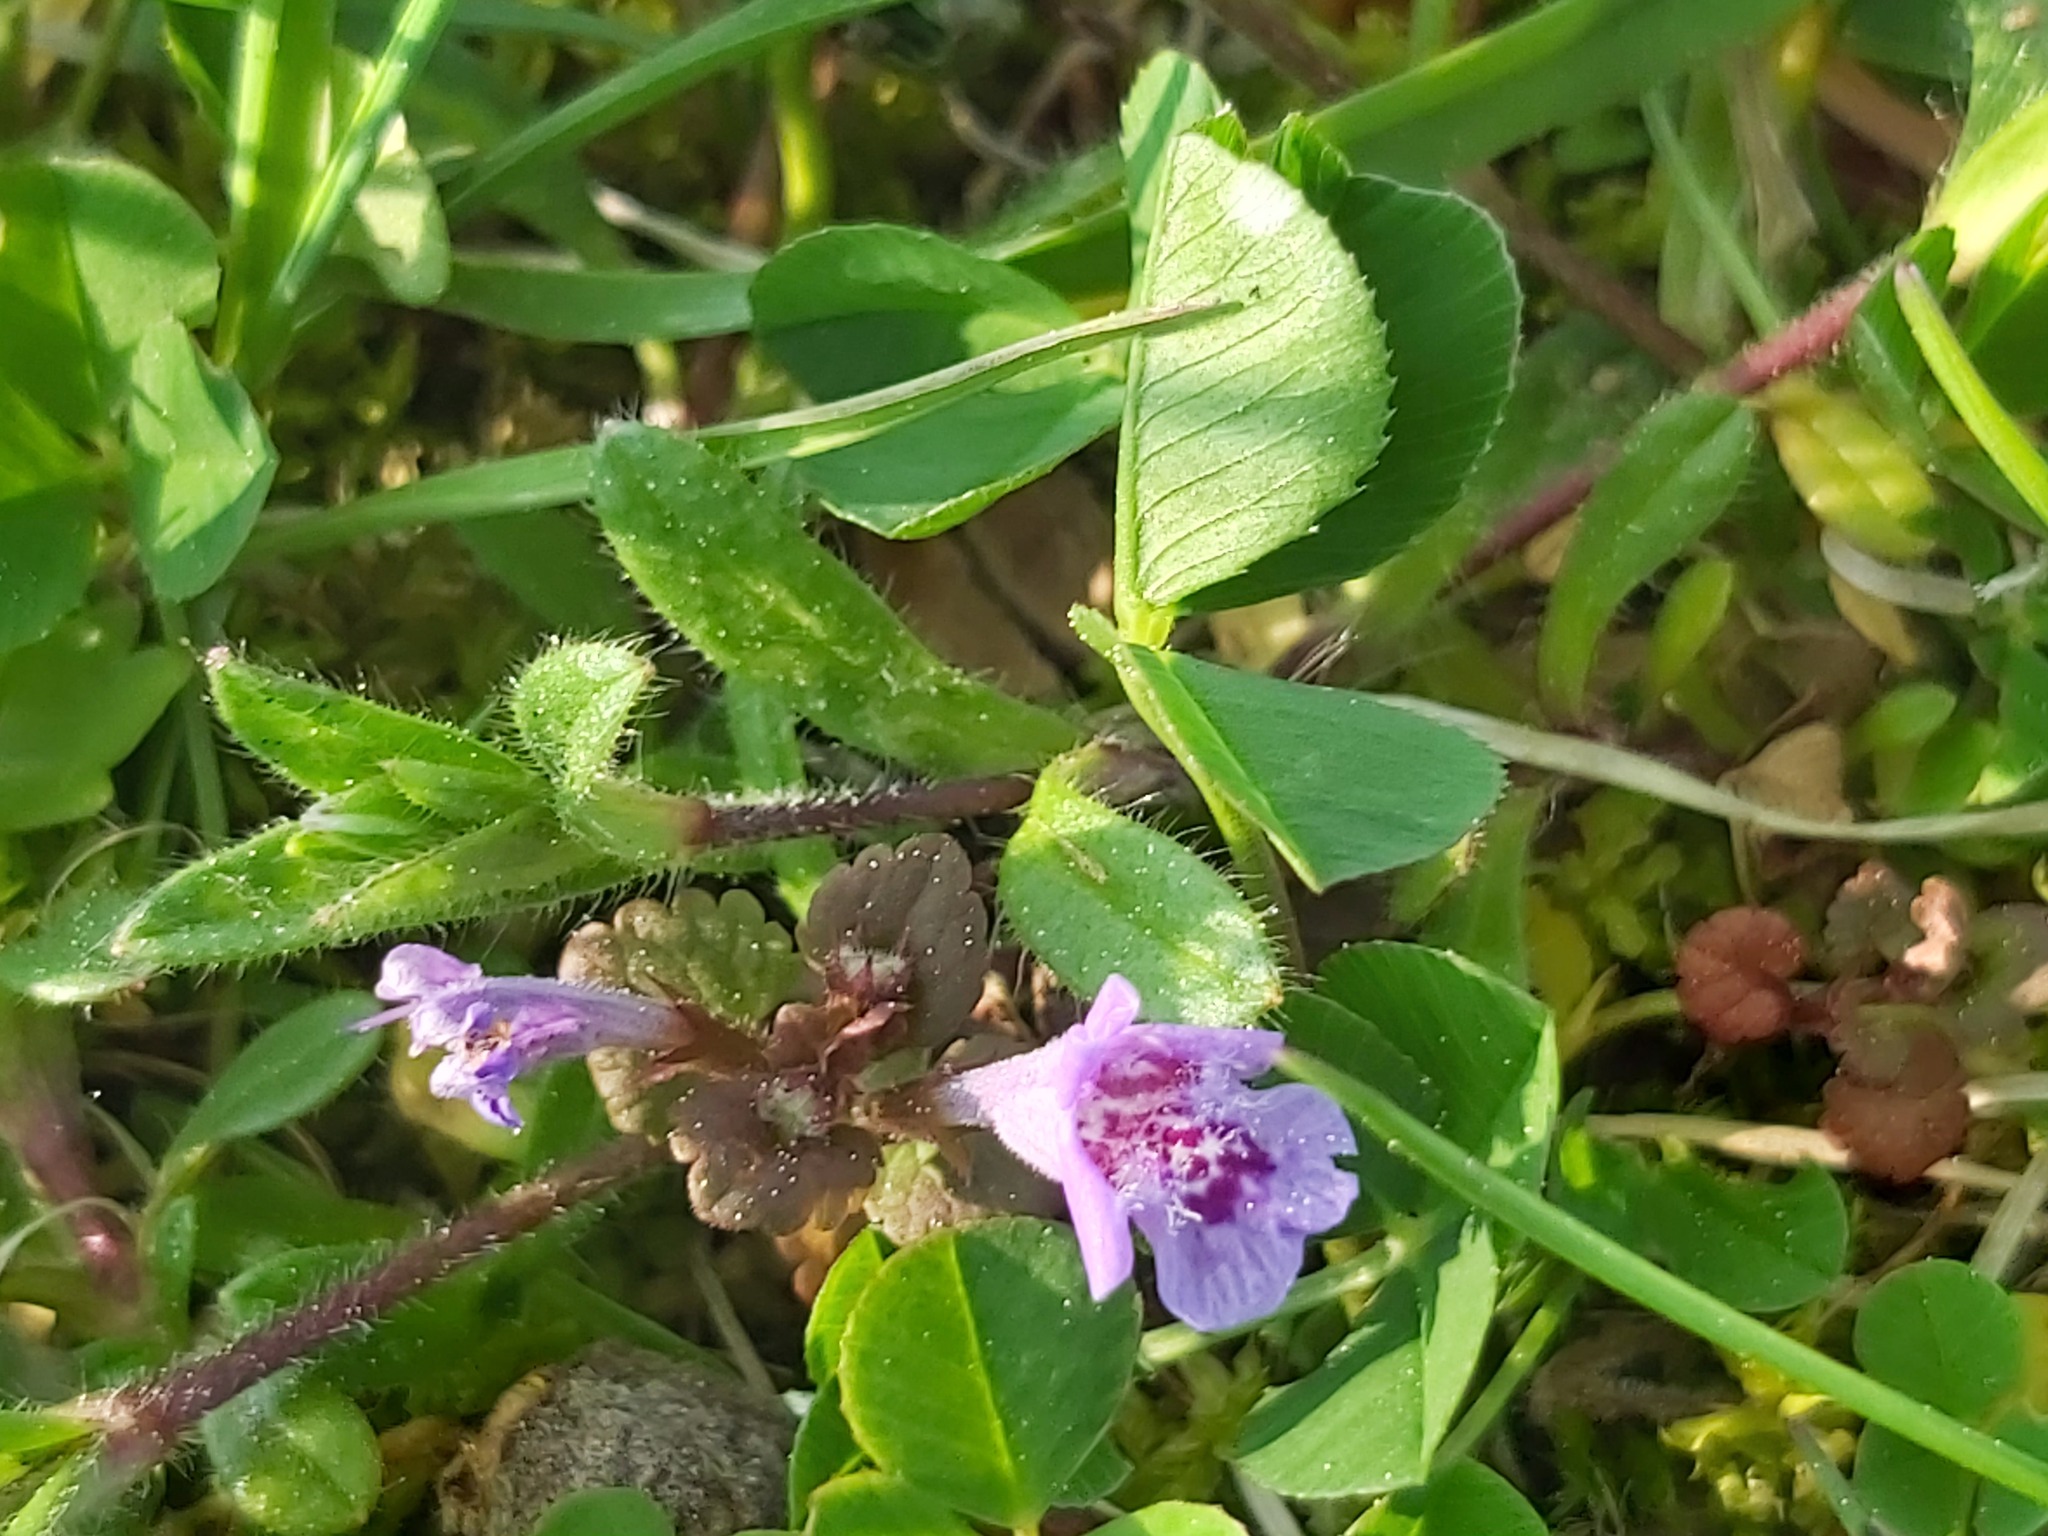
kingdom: Plantae
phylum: Tracheophyta
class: Magnoliopsida
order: Lamiales
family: Lamiaceae
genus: Glechoma
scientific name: Glechoma hederacea
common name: Ground ivy
